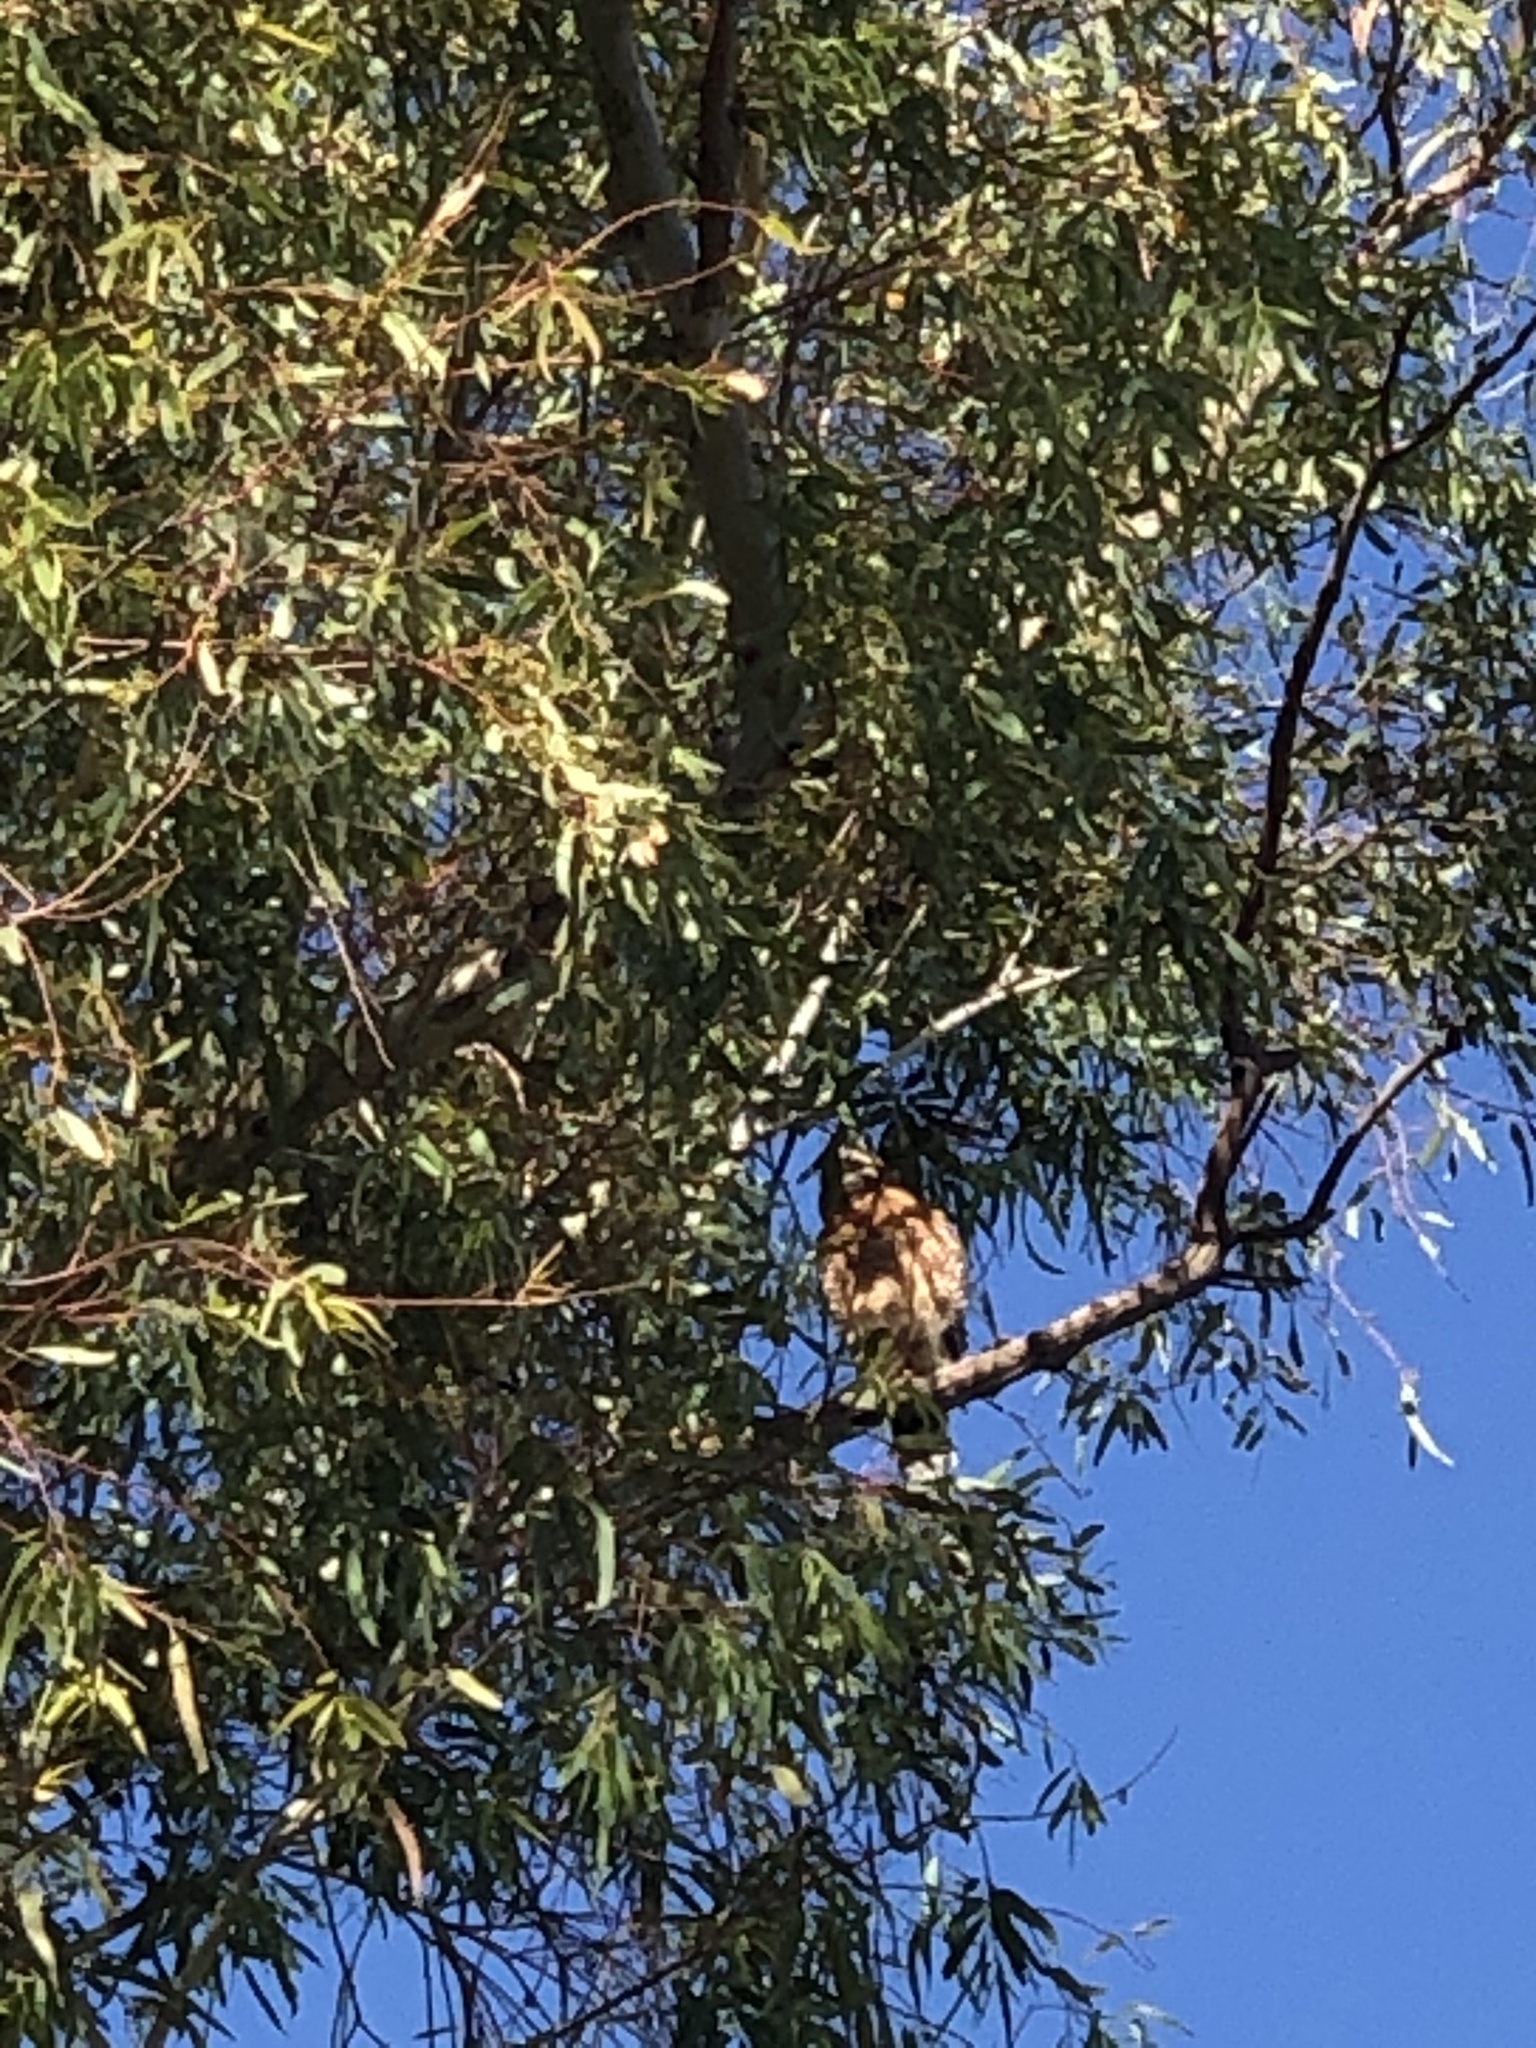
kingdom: Animalia
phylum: Chordata
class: Aves
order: Accipitriformes
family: Accipitridae
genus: Buteo
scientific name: Buteo lineatus
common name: Red-shouldered hawk
